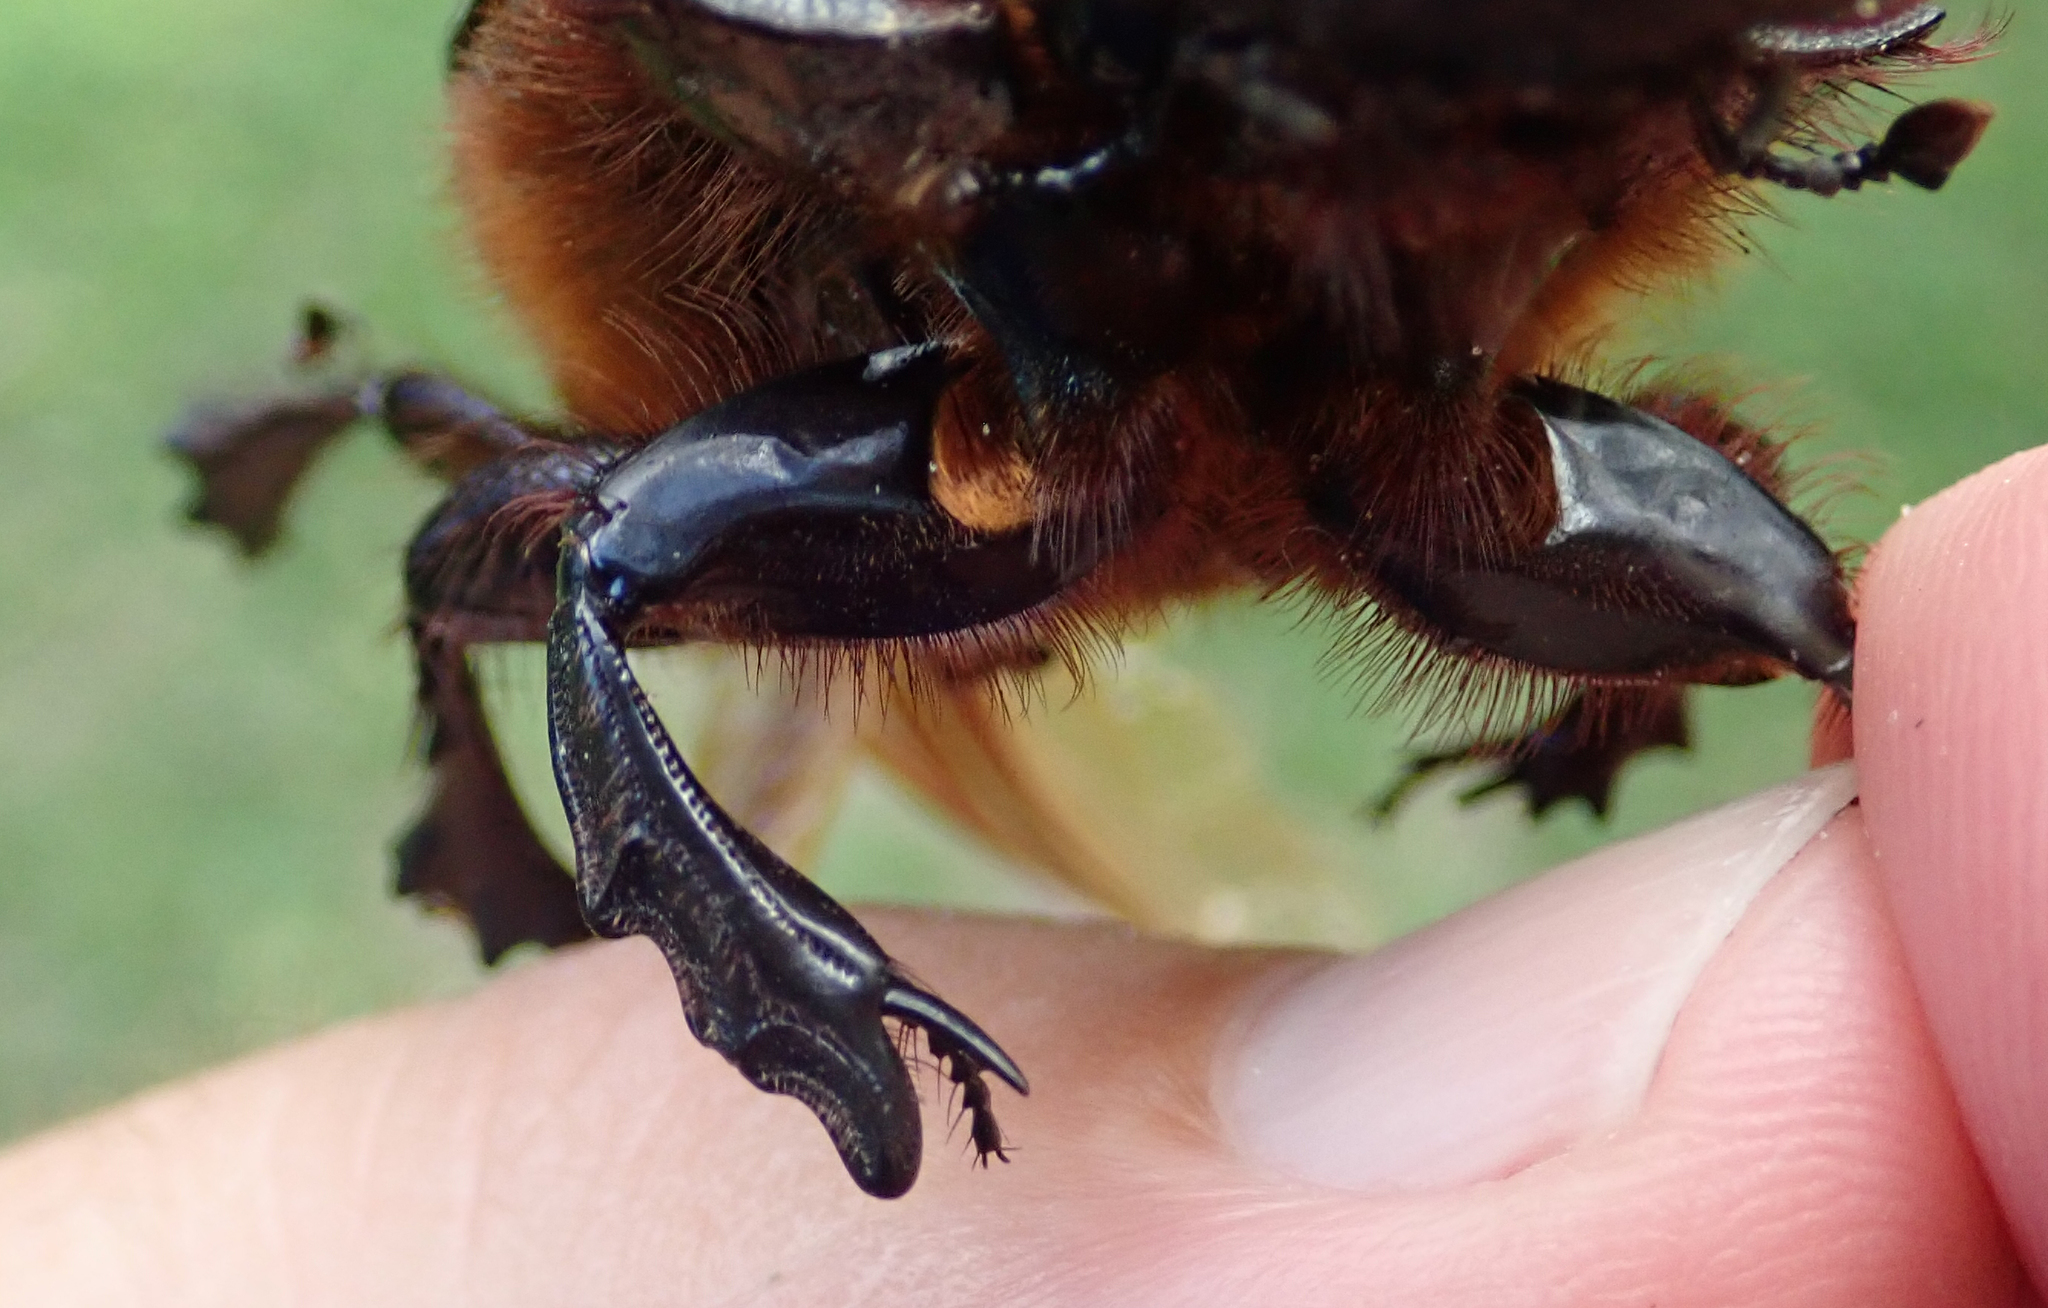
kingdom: Animalia
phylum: Arthropoda
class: Insecta
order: Coleoptera
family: Scarabaeidae
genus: Heliocopris
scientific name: Heliocopris andersoni
